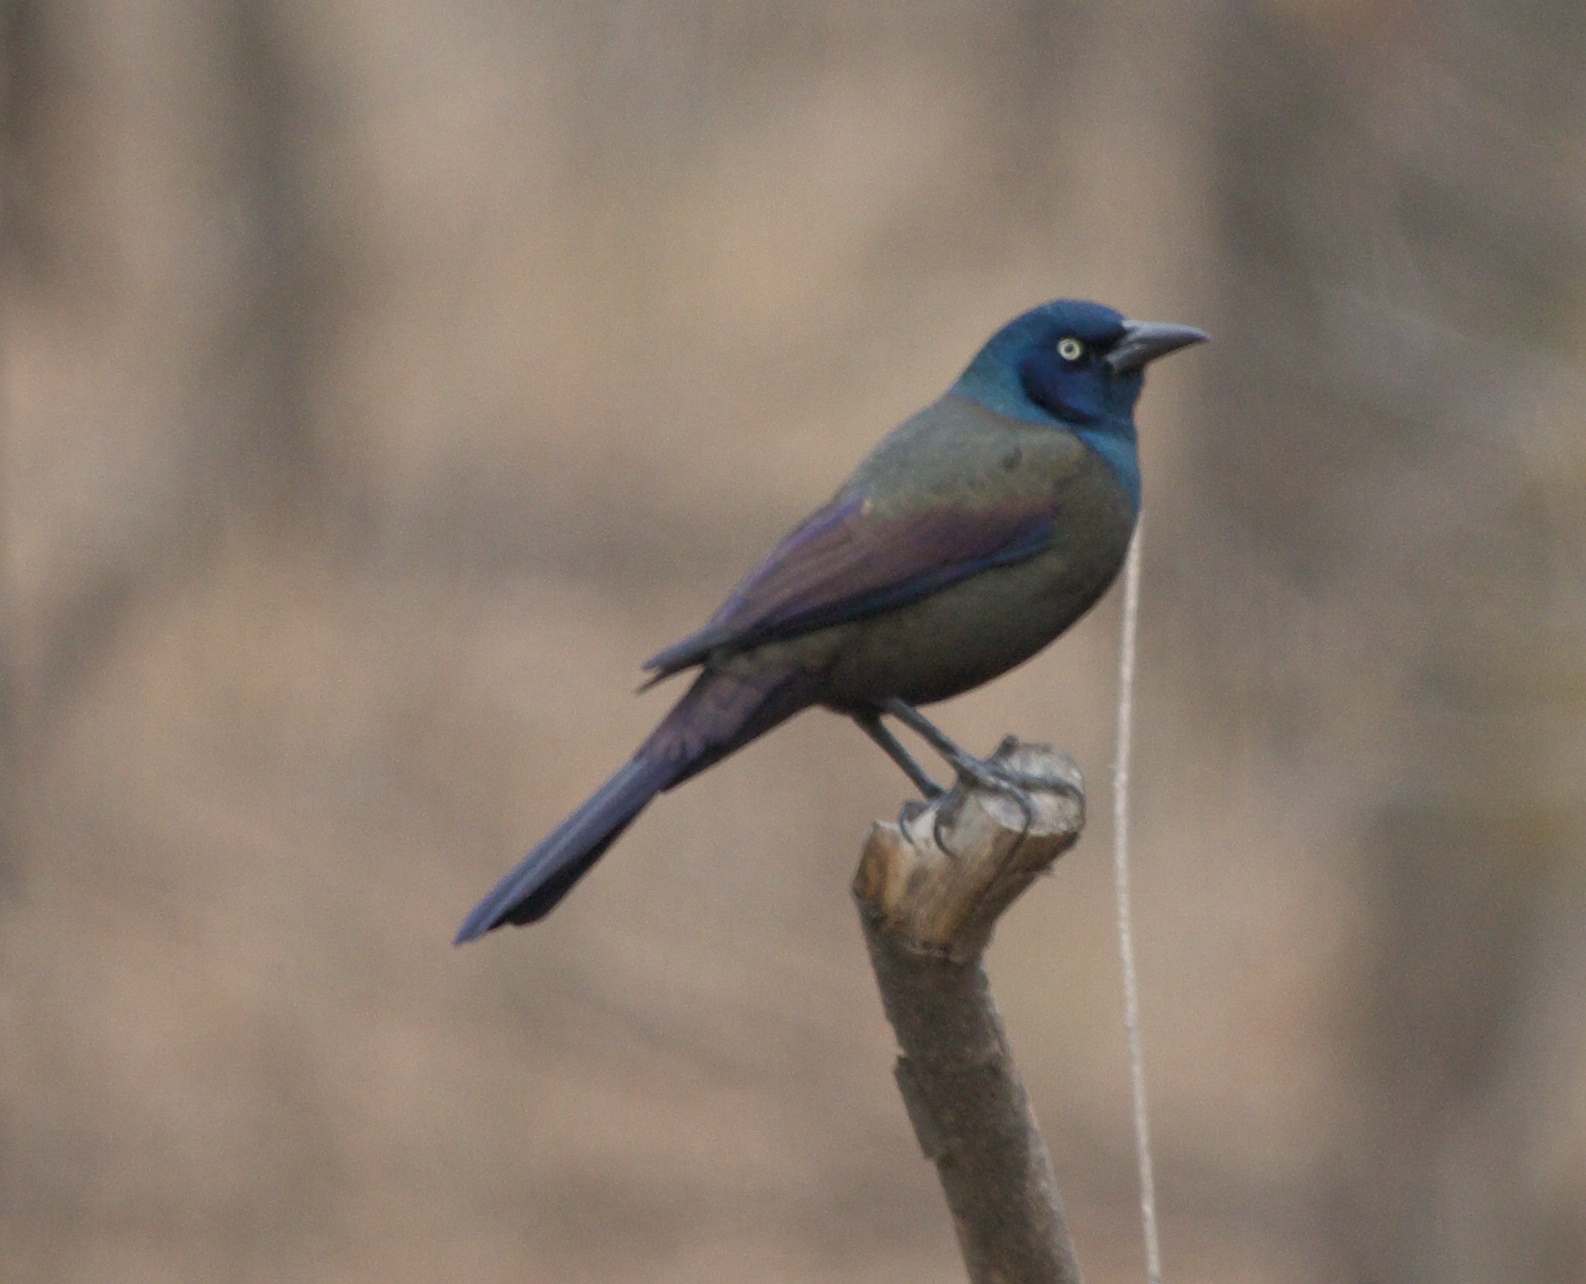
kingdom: Animalia
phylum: Chordata
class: Aves
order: Passeriformes
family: Icteridae
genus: Quiscalus
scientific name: Quiscalus quiscula
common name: Common grackle
